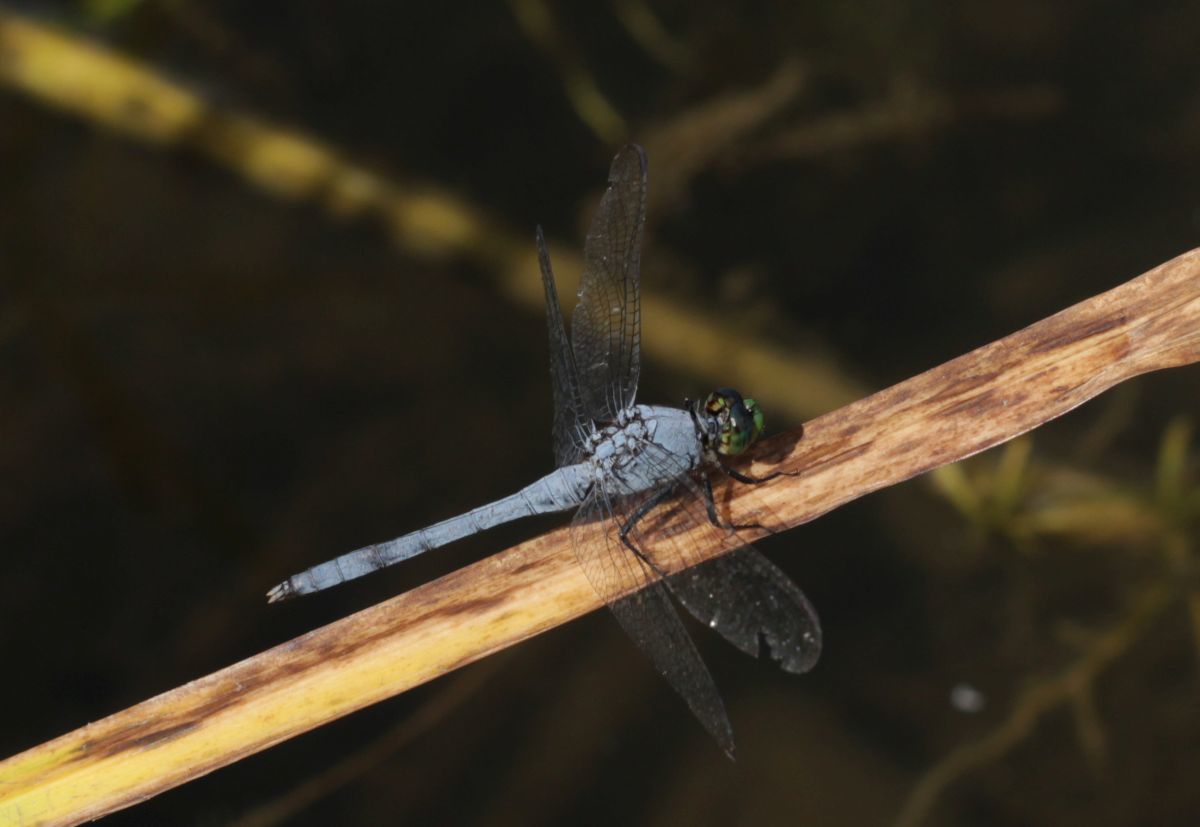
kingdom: Animalia
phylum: Arthropoda
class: Insecta
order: Odonata
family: Libellulidae
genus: Erythemis
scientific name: Erythemis simplicicollis
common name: Eastern pondhawk
